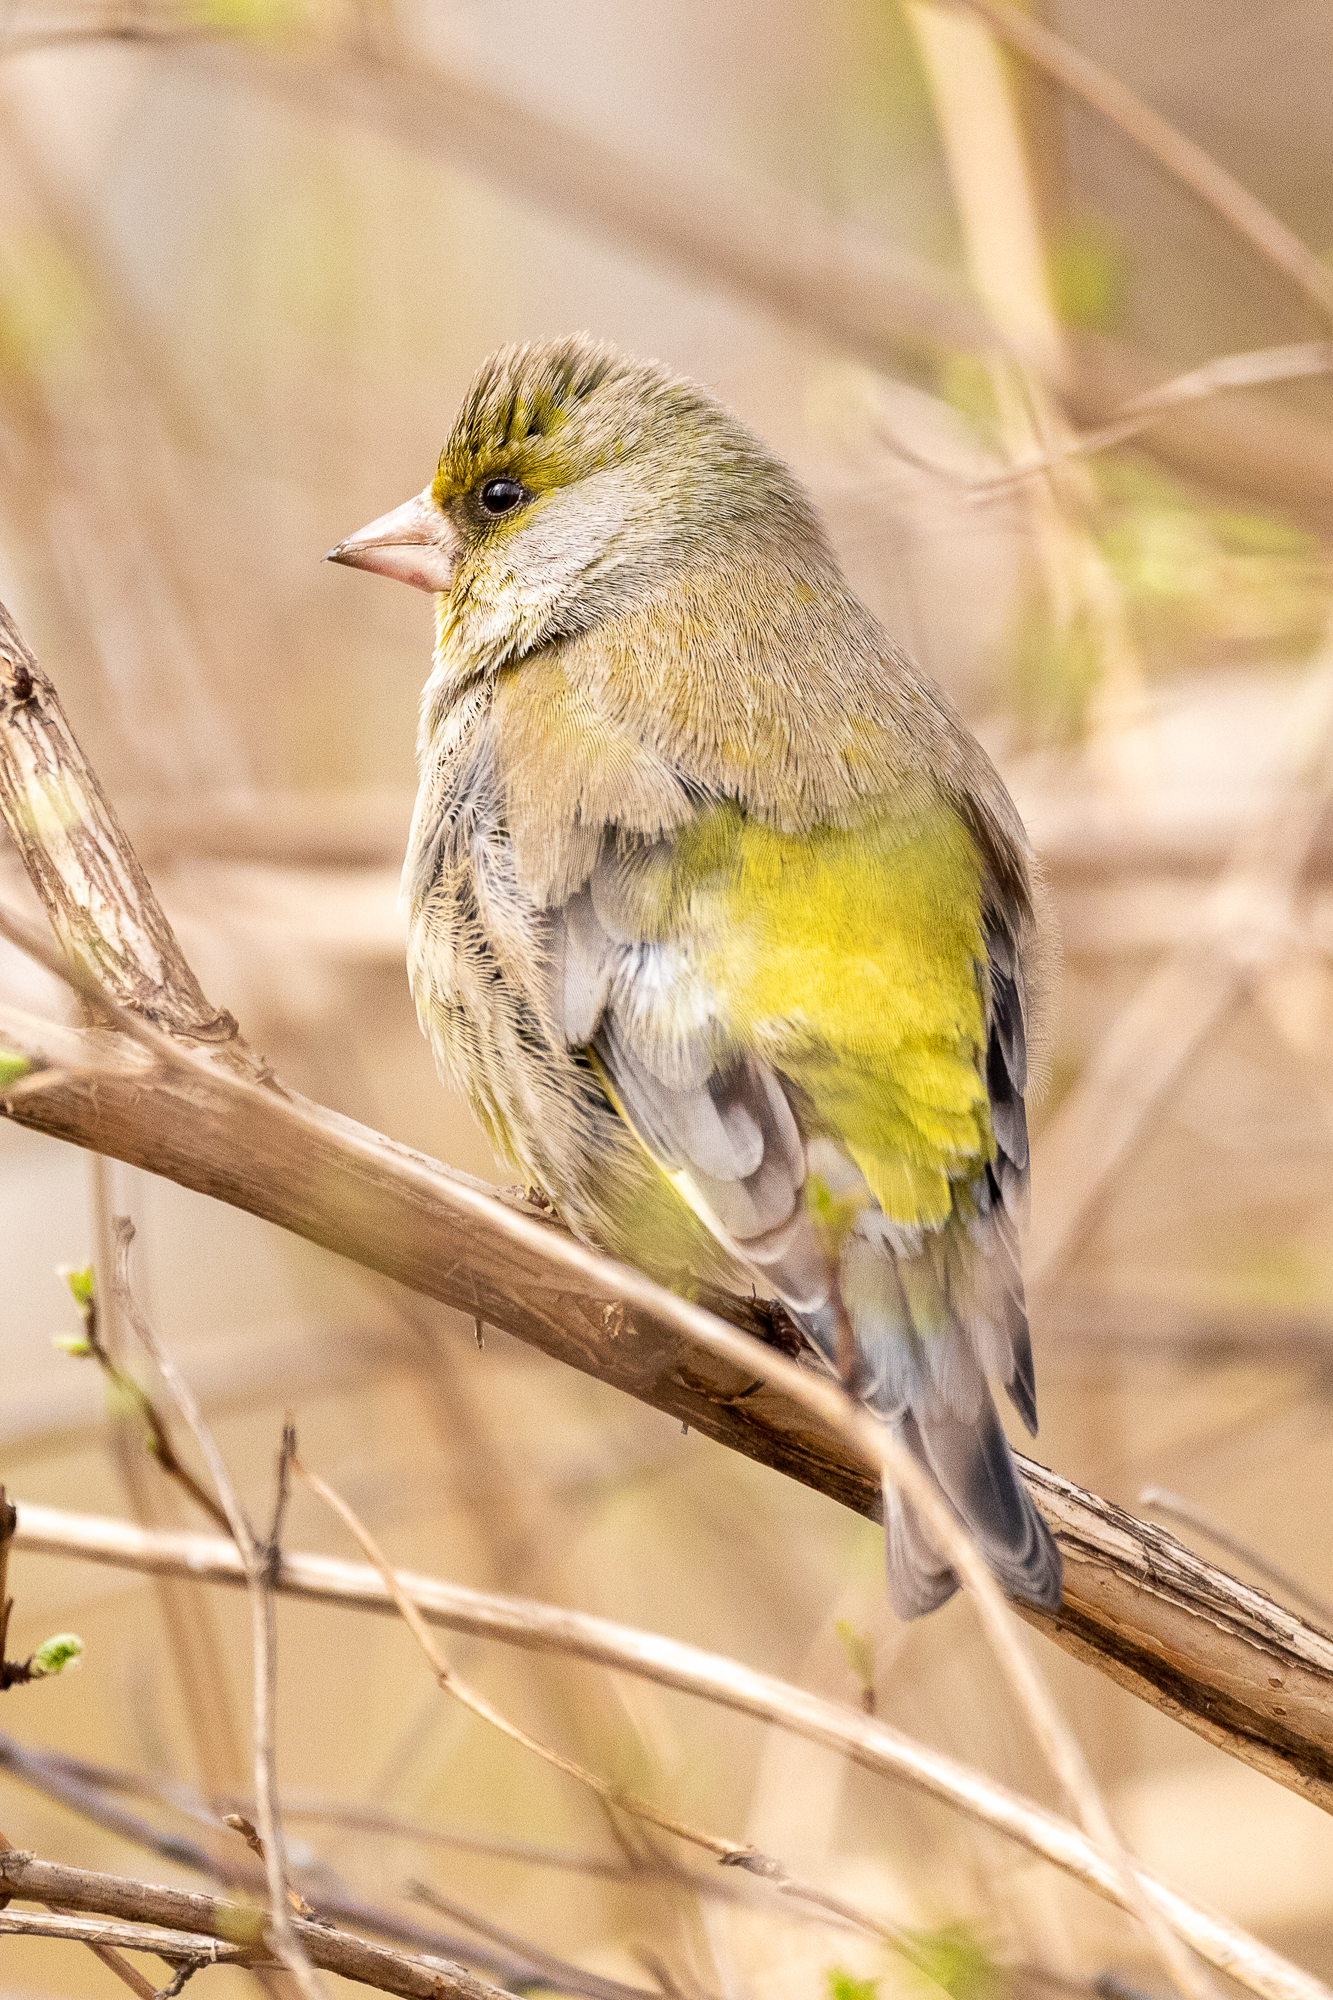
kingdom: Plantae
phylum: Tracheophyta
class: Liliopsida
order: Poales
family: Poaceae
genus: Chloris
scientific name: Chloris chloris
